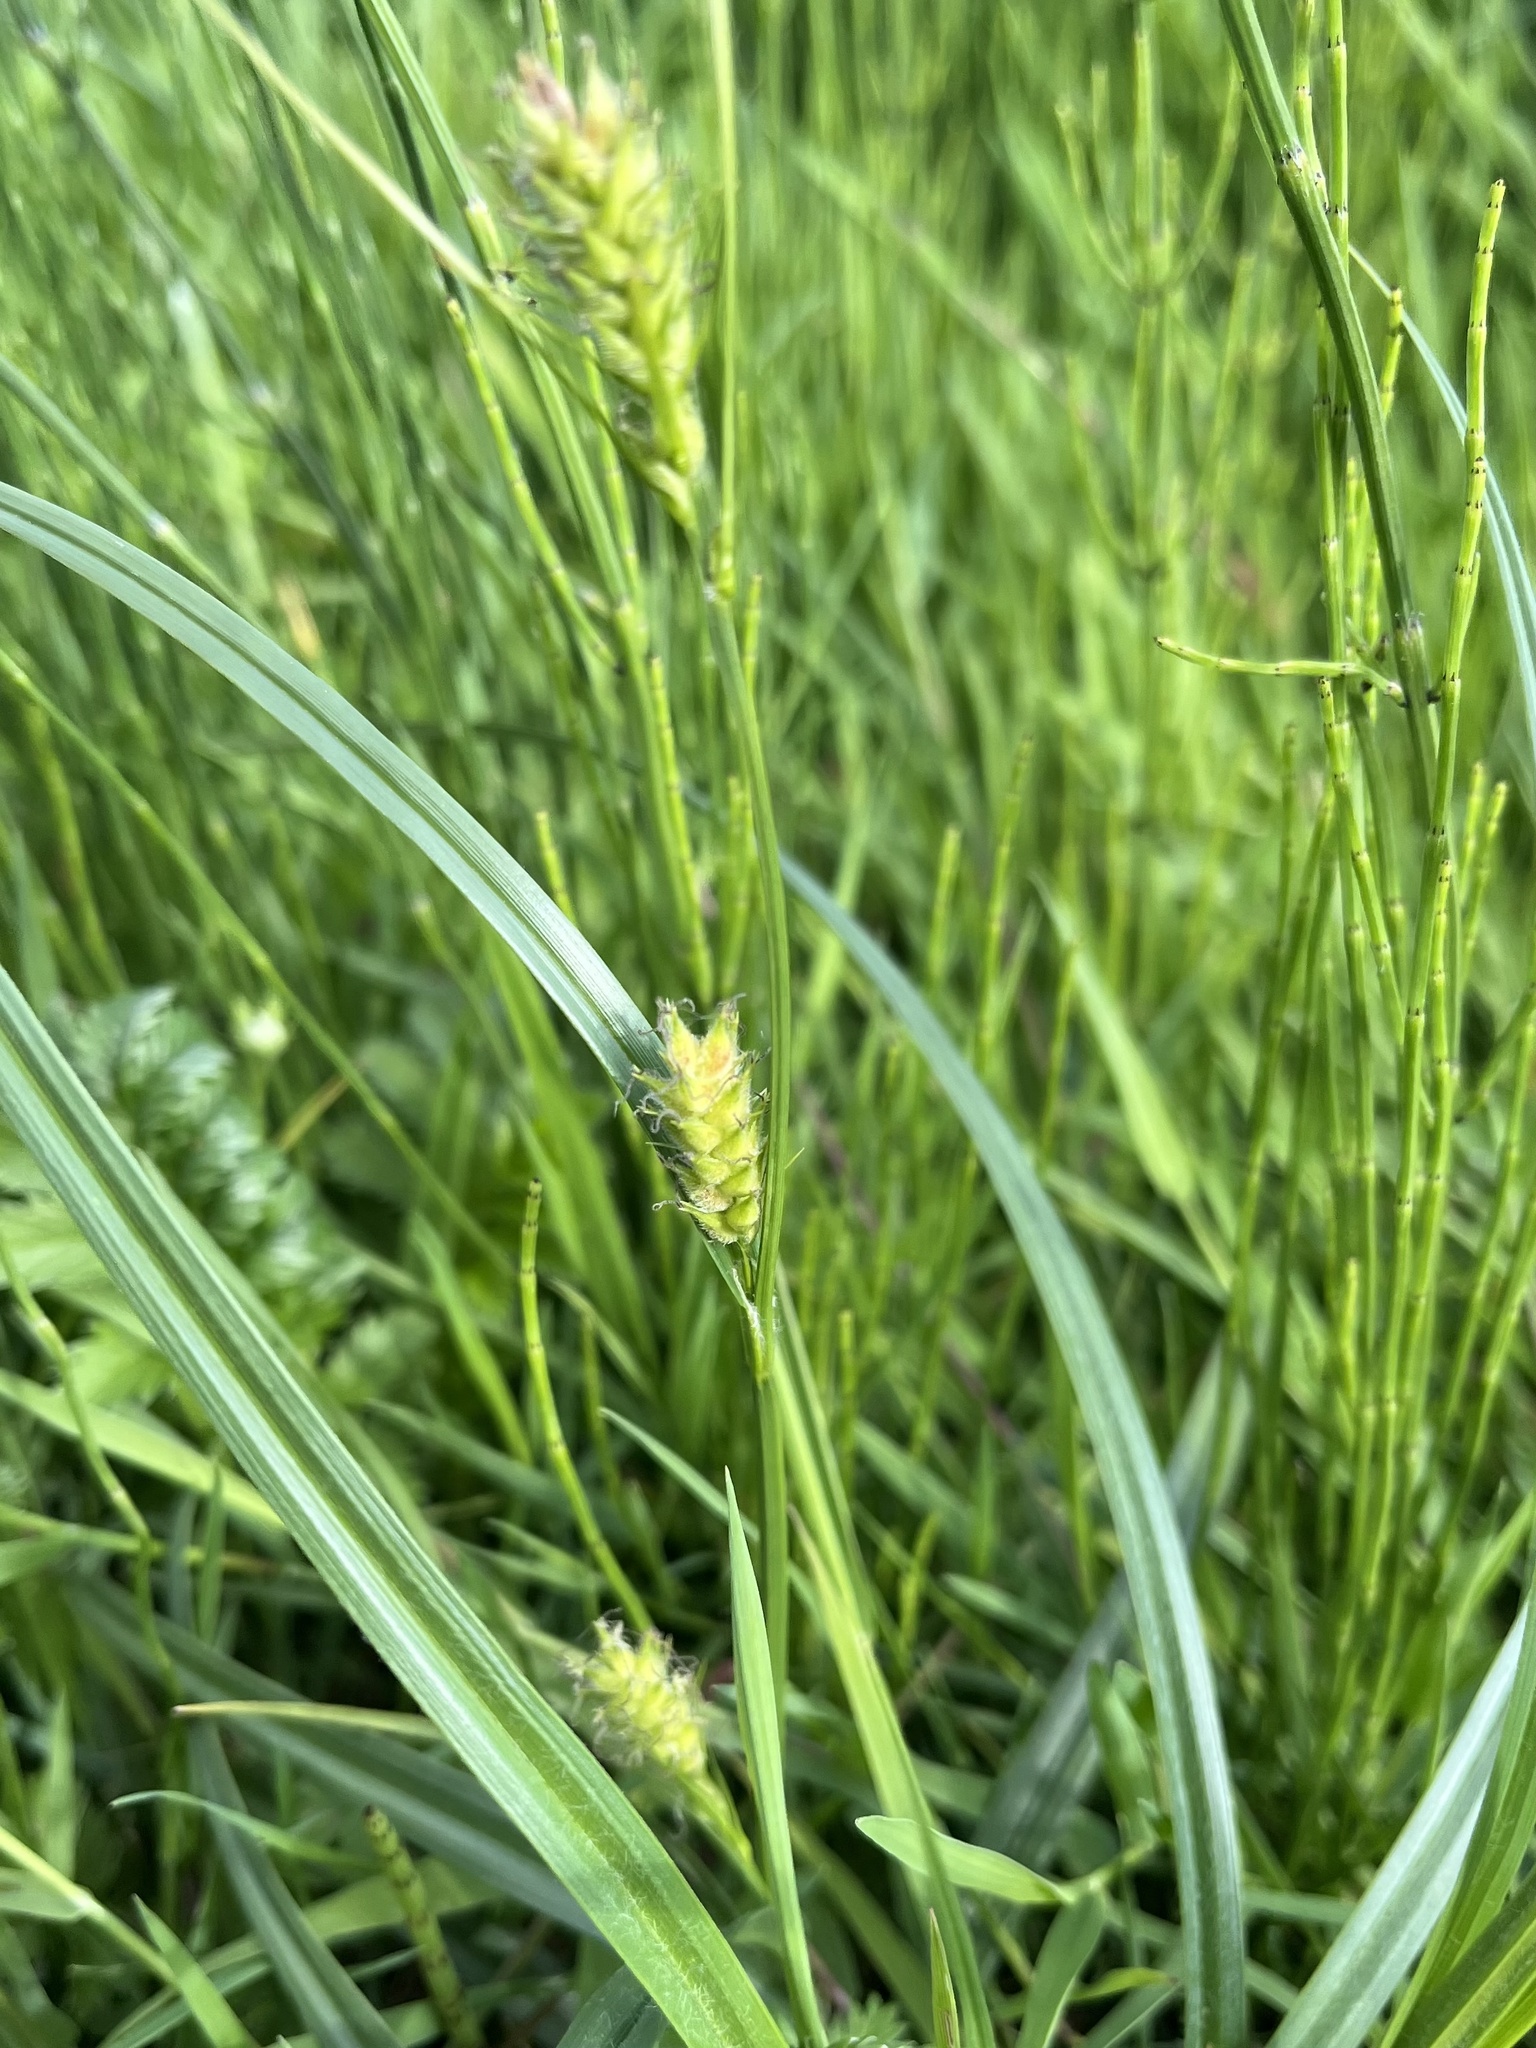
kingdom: Plantae
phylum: Tracheophyta
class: Liliopsida
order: Poales
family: Cyperaceae
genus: Carex
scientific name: Carex hirta
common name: Hairy sedge
